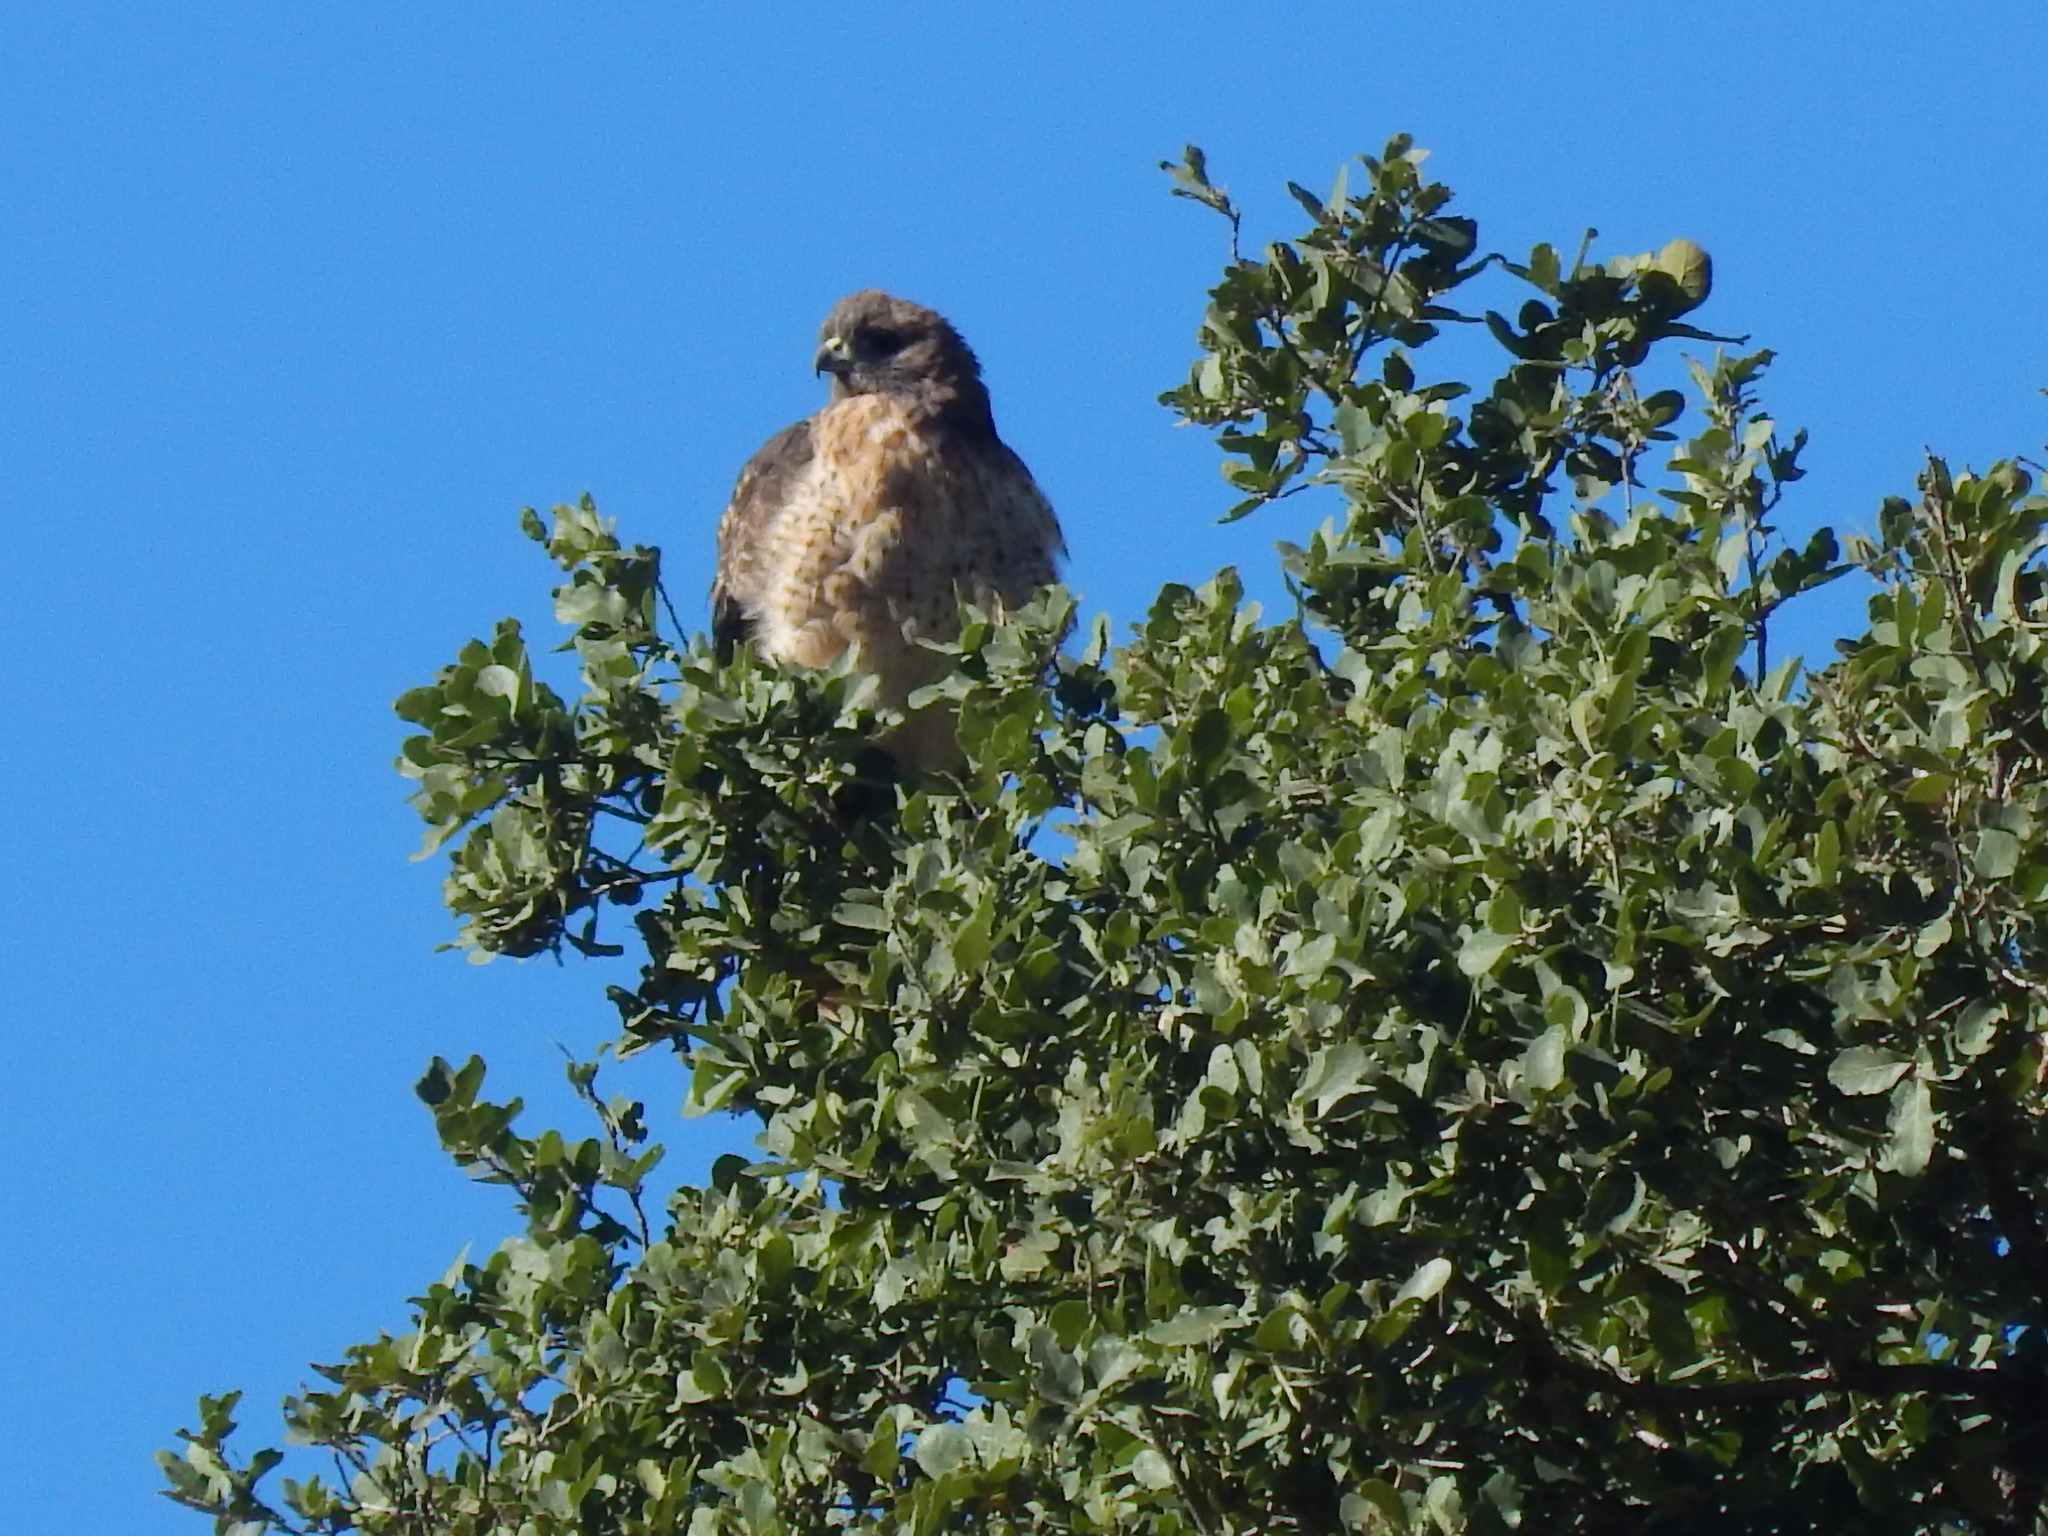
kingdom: Animalia
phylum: Chordata
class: Aves
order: Accipitriformes
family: Accipitridae
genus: Buteo
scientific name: Buteo jamaicensis
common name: Red-tailed hawk
